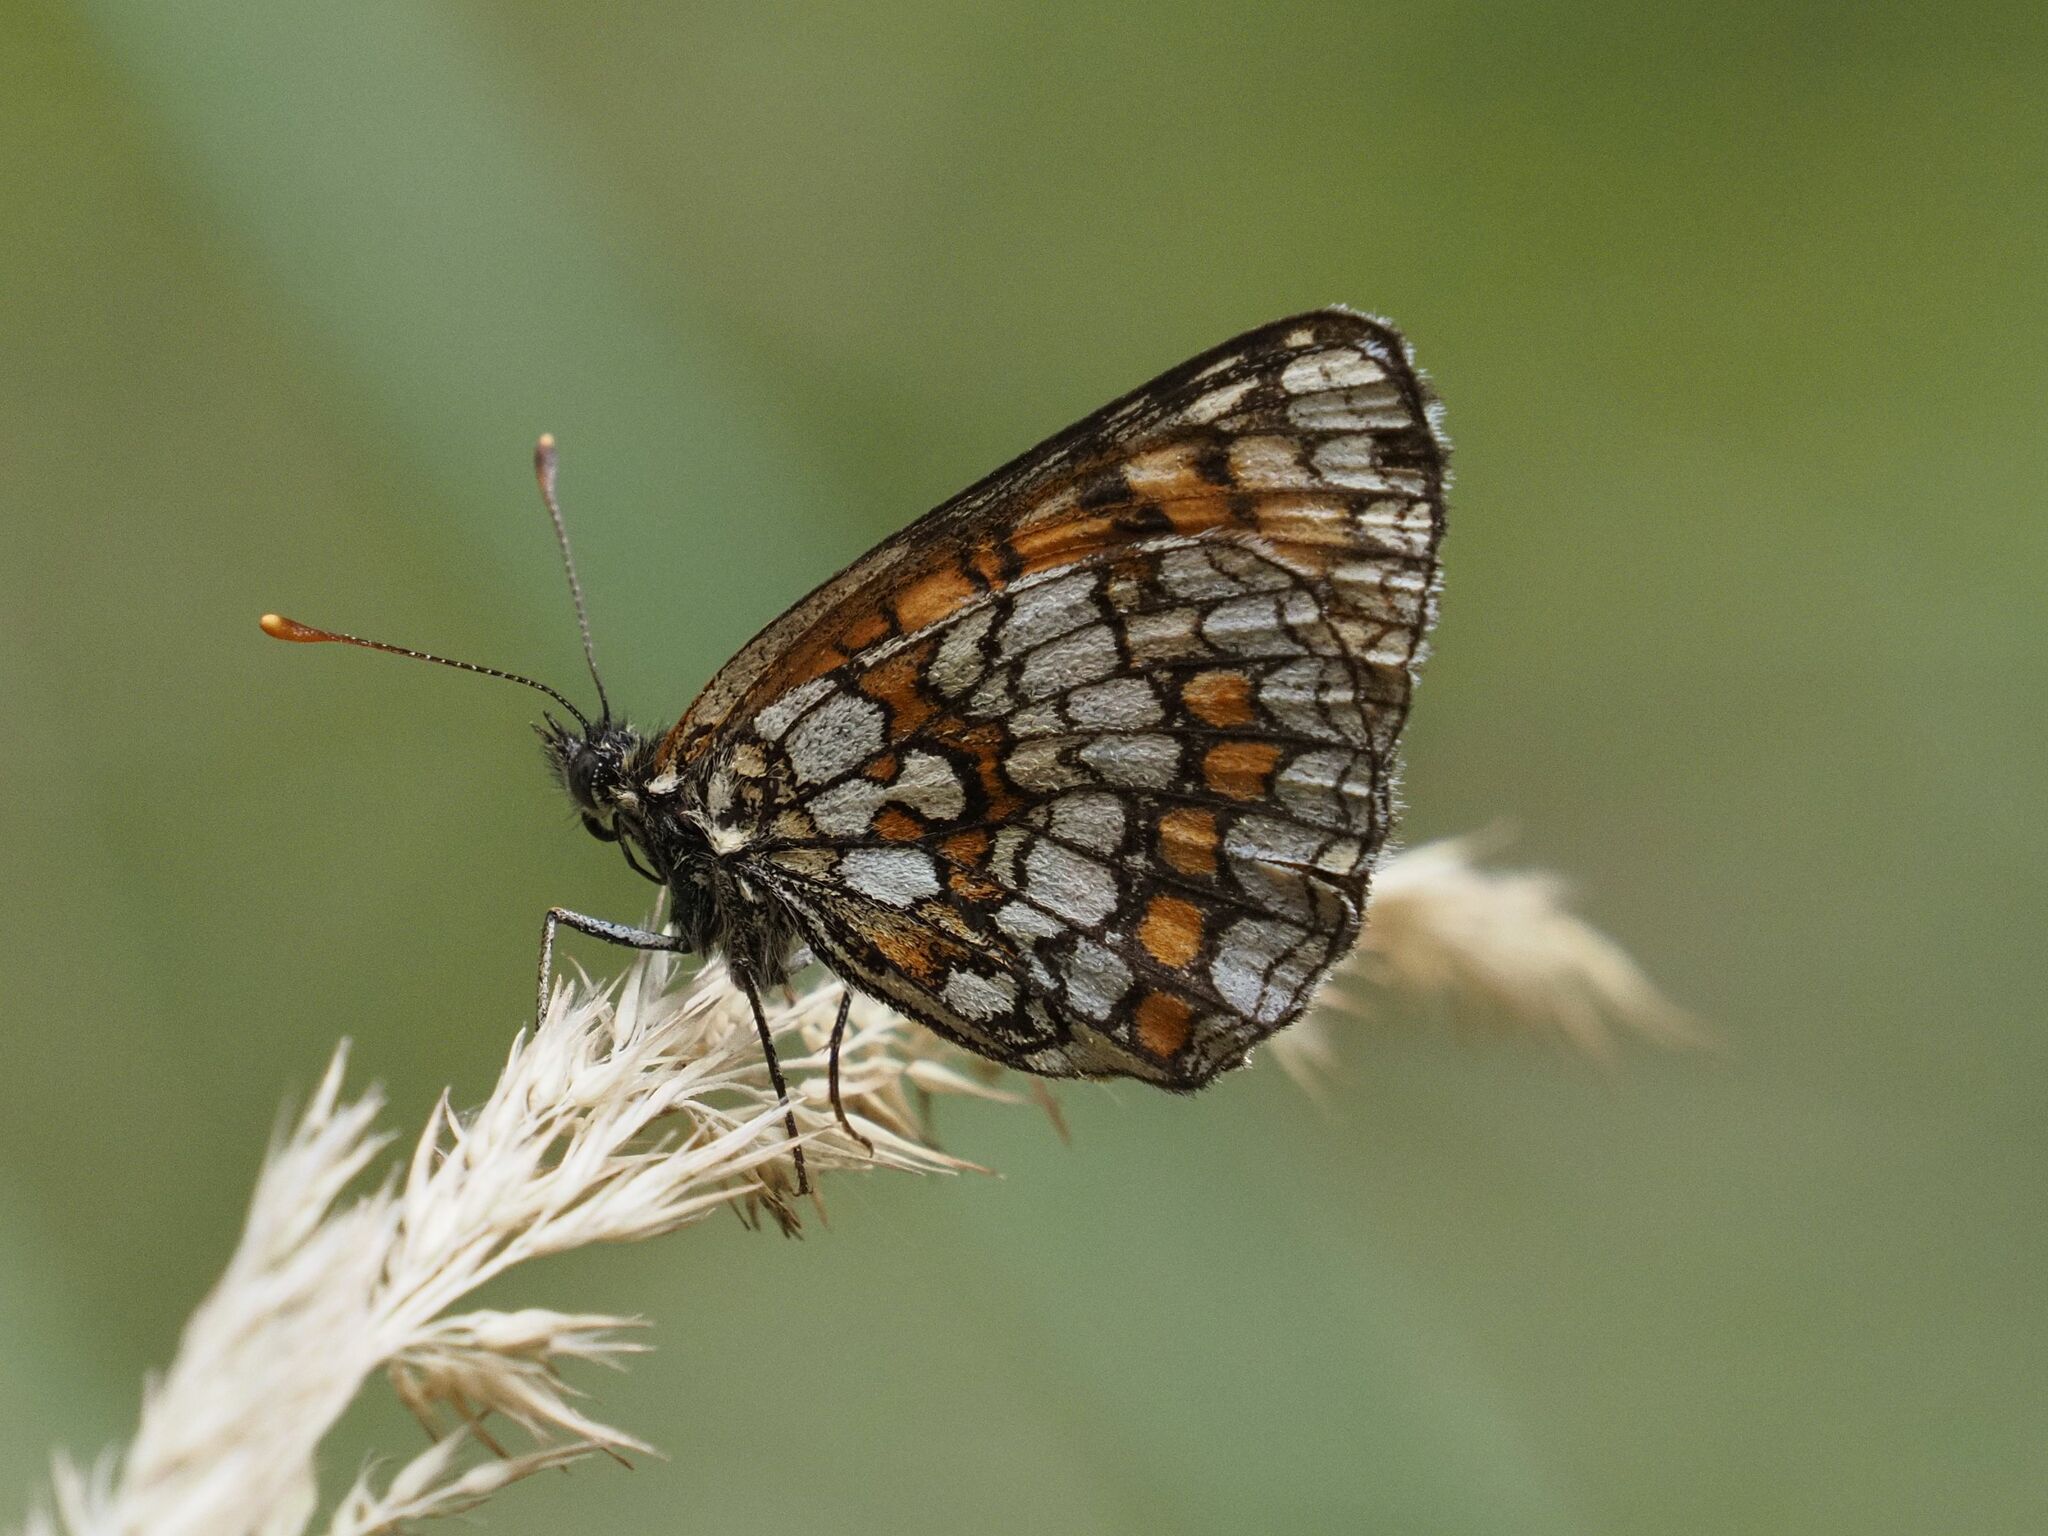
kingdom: Animalia
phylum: Arthropoda
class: Insecta
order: Lepidoptera
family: Nymphalidae
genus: Melitaea
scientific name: Melitaea athalia
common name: Heath fritillary
